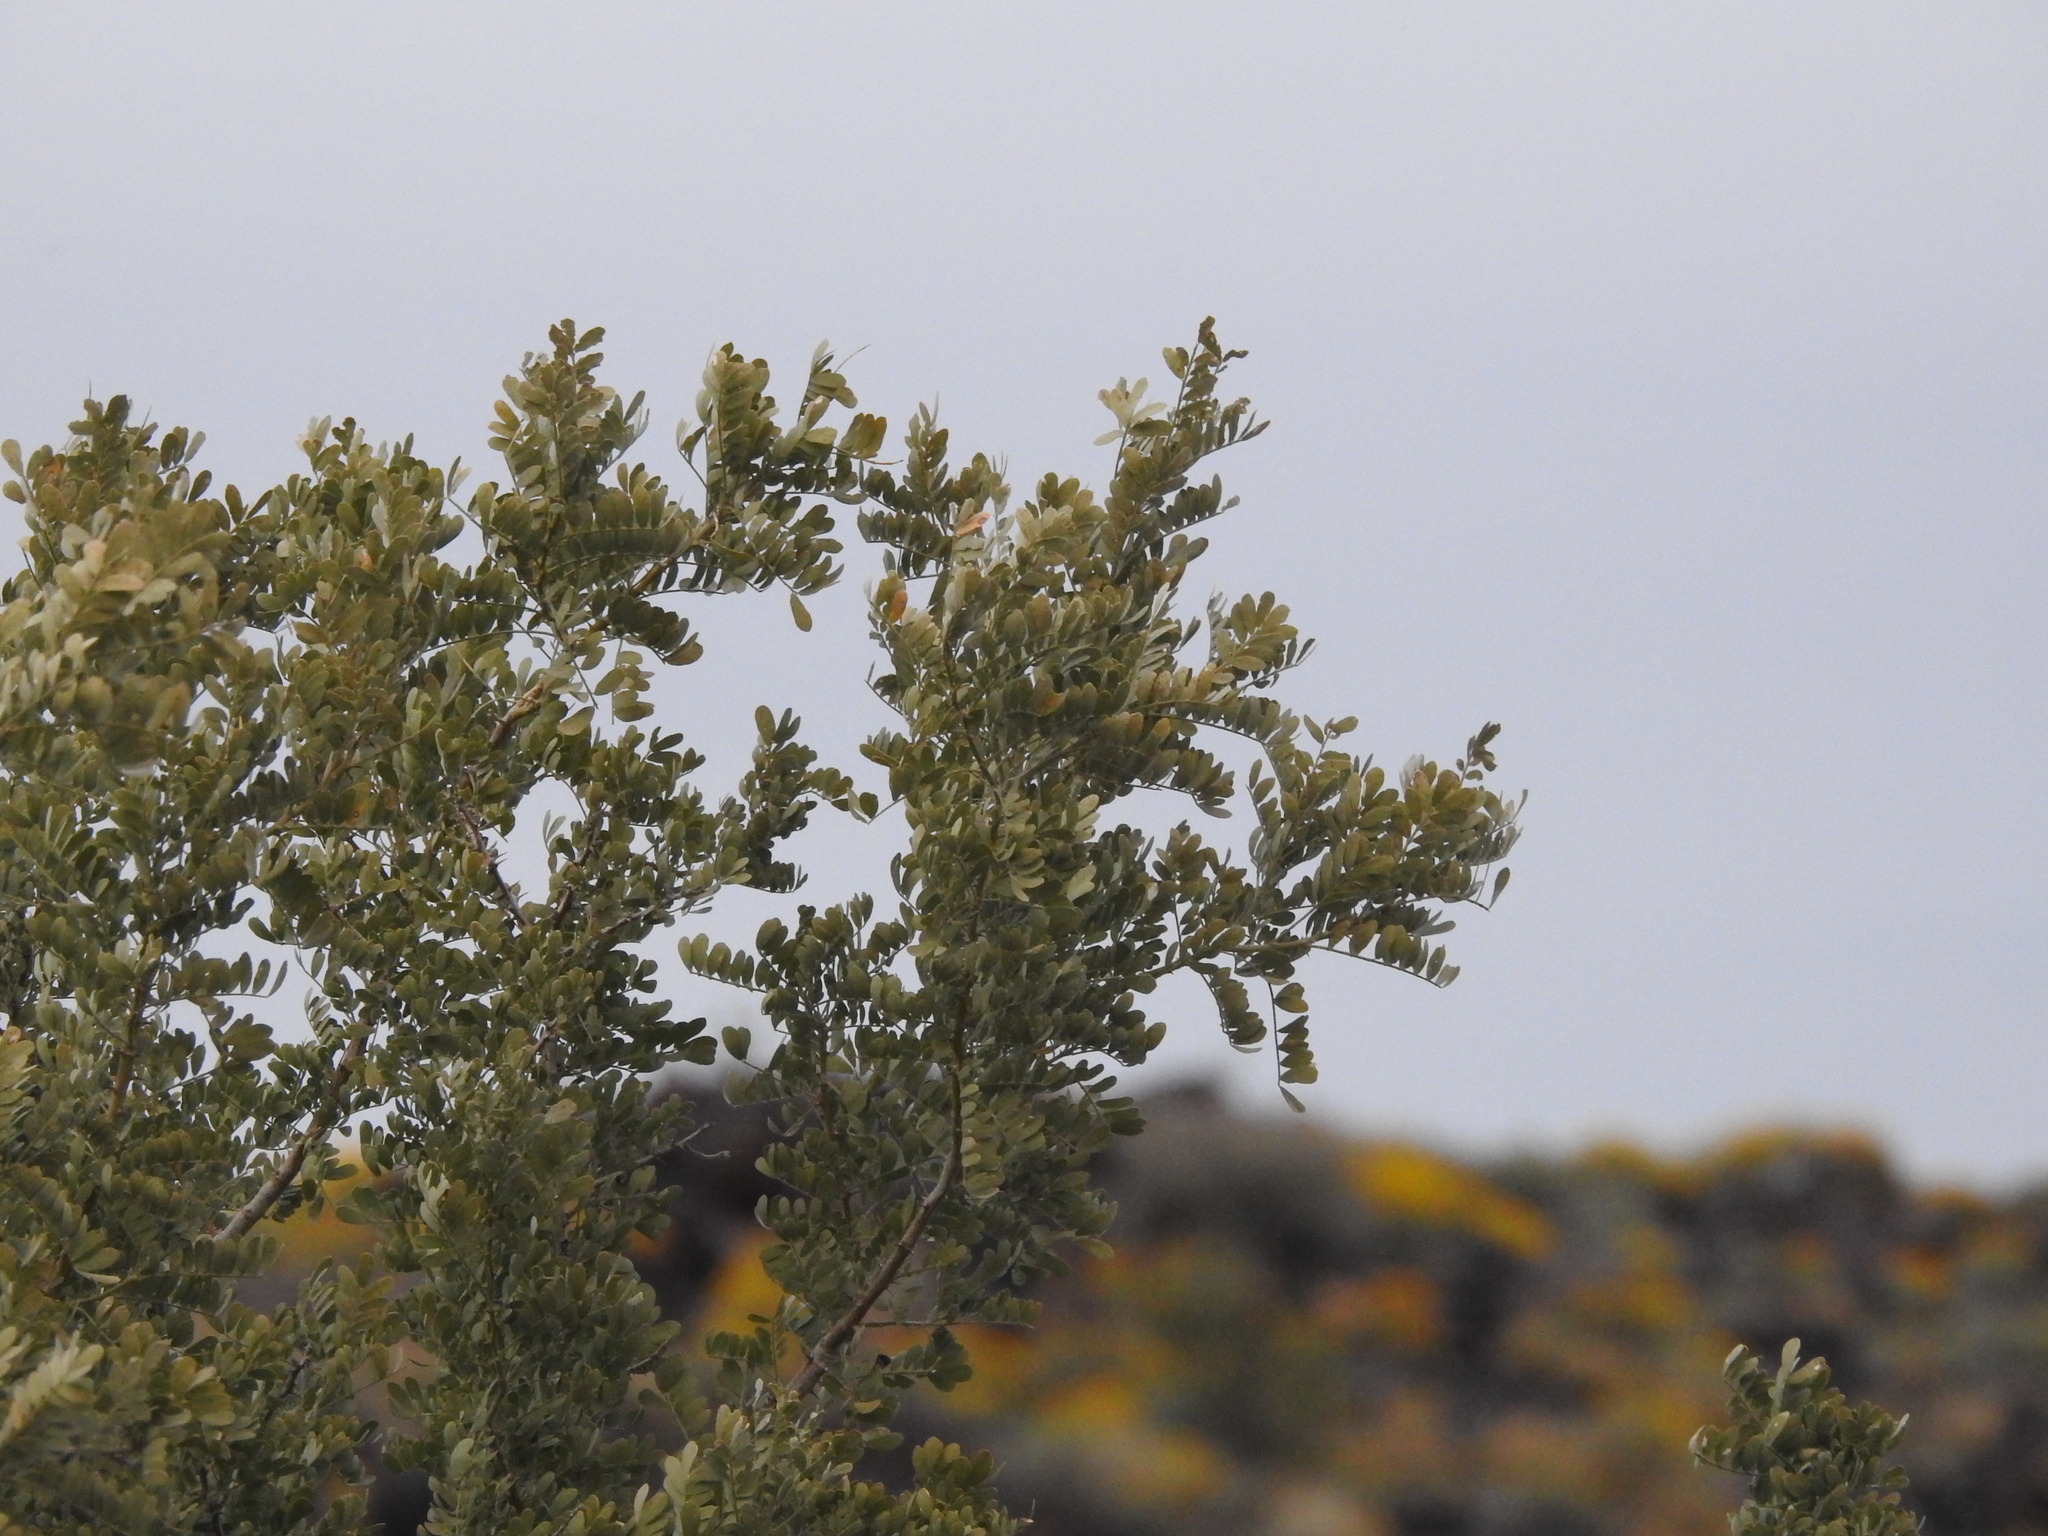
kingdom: Plantae
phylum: Tracheophyta
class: Magnoliopsida
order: Fabales
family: Fabaceae
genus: Olneya
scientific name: Olneya tesota
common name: Desert ironwood
